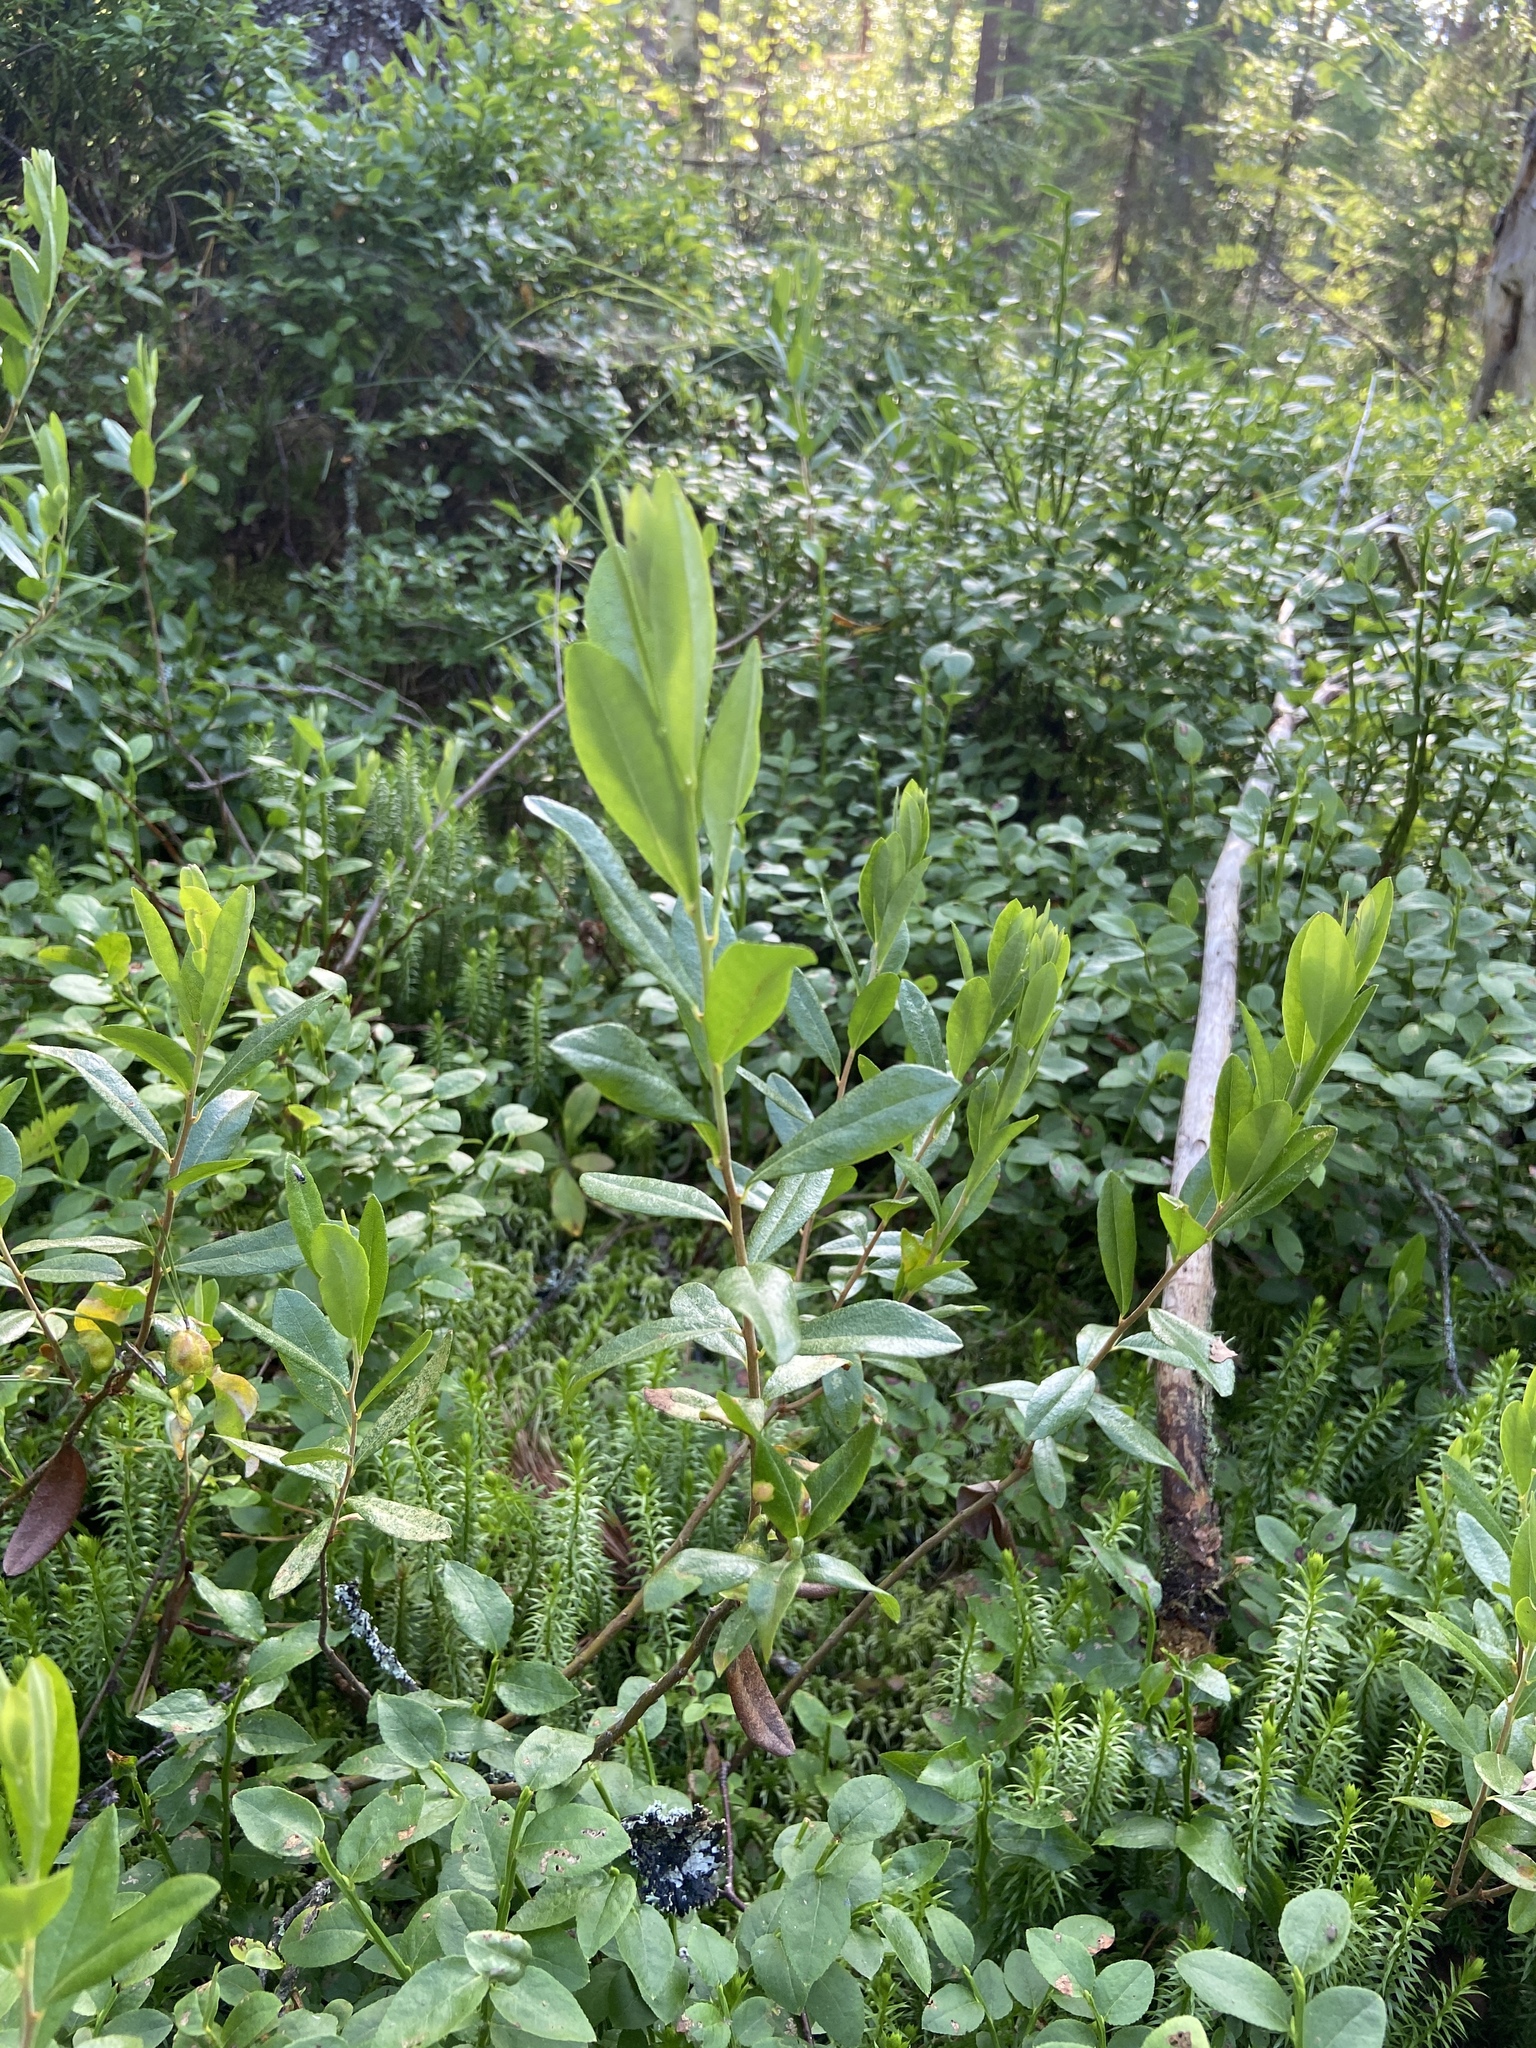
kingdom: Plantae
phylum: Tracheophyta
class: Magnoliopsida
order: Ericales
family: Ericaceae
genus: Chamaedaphne
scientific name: Chamaedaphne calyculata
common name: Leatherleaf
